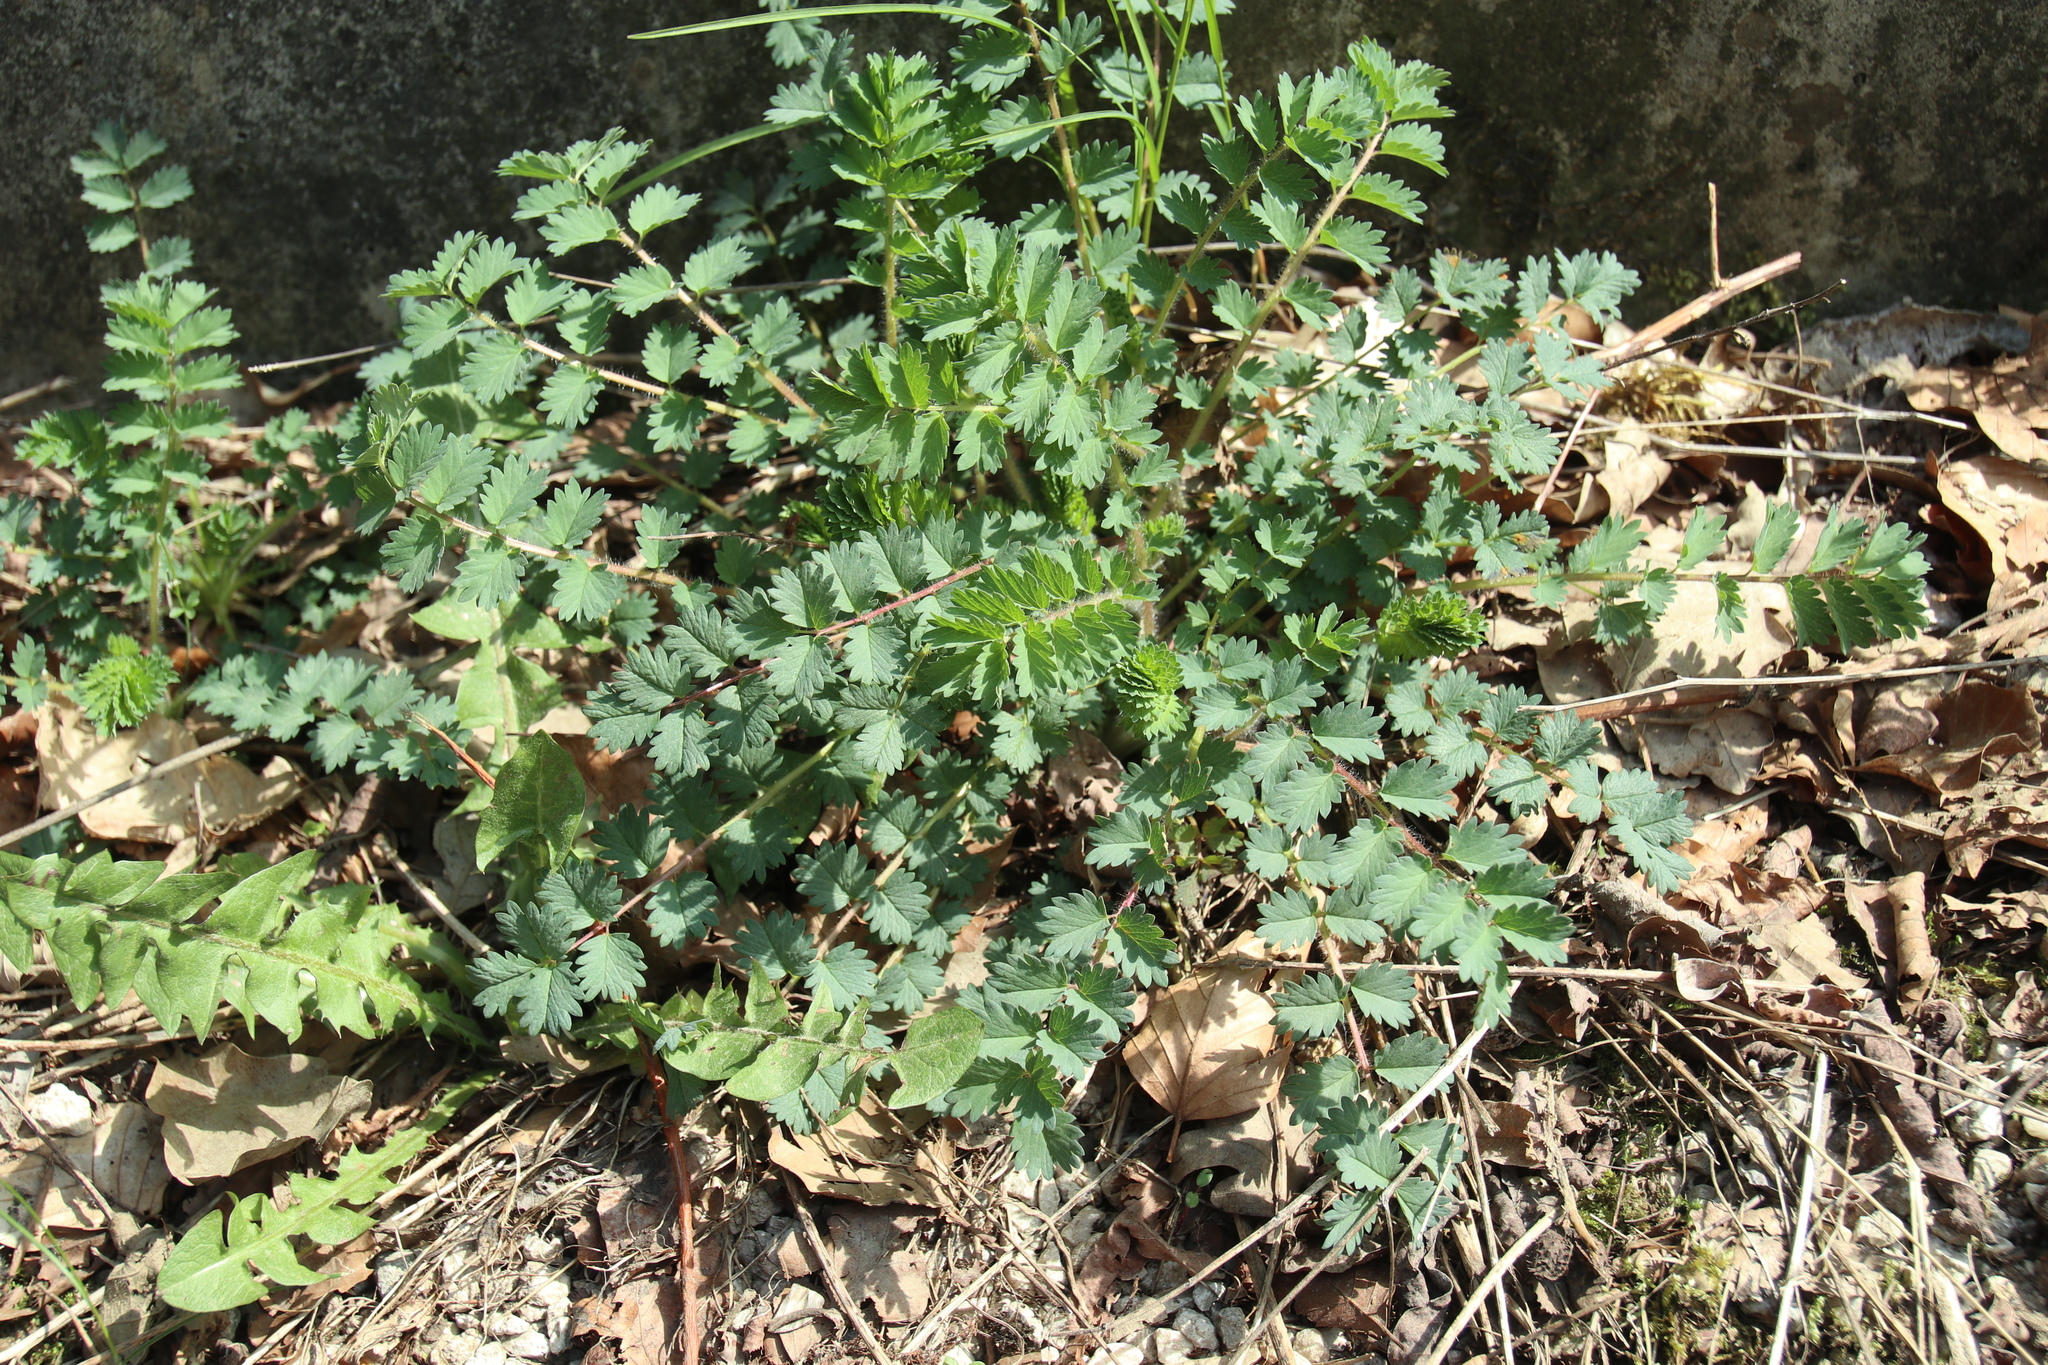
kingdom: Plantae
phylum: Tracheophyta
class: Magnoliopsida
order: Rosales
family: Rosaceae
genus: Poterium
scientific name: Poterium sanguisorba
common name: Salad burnet
